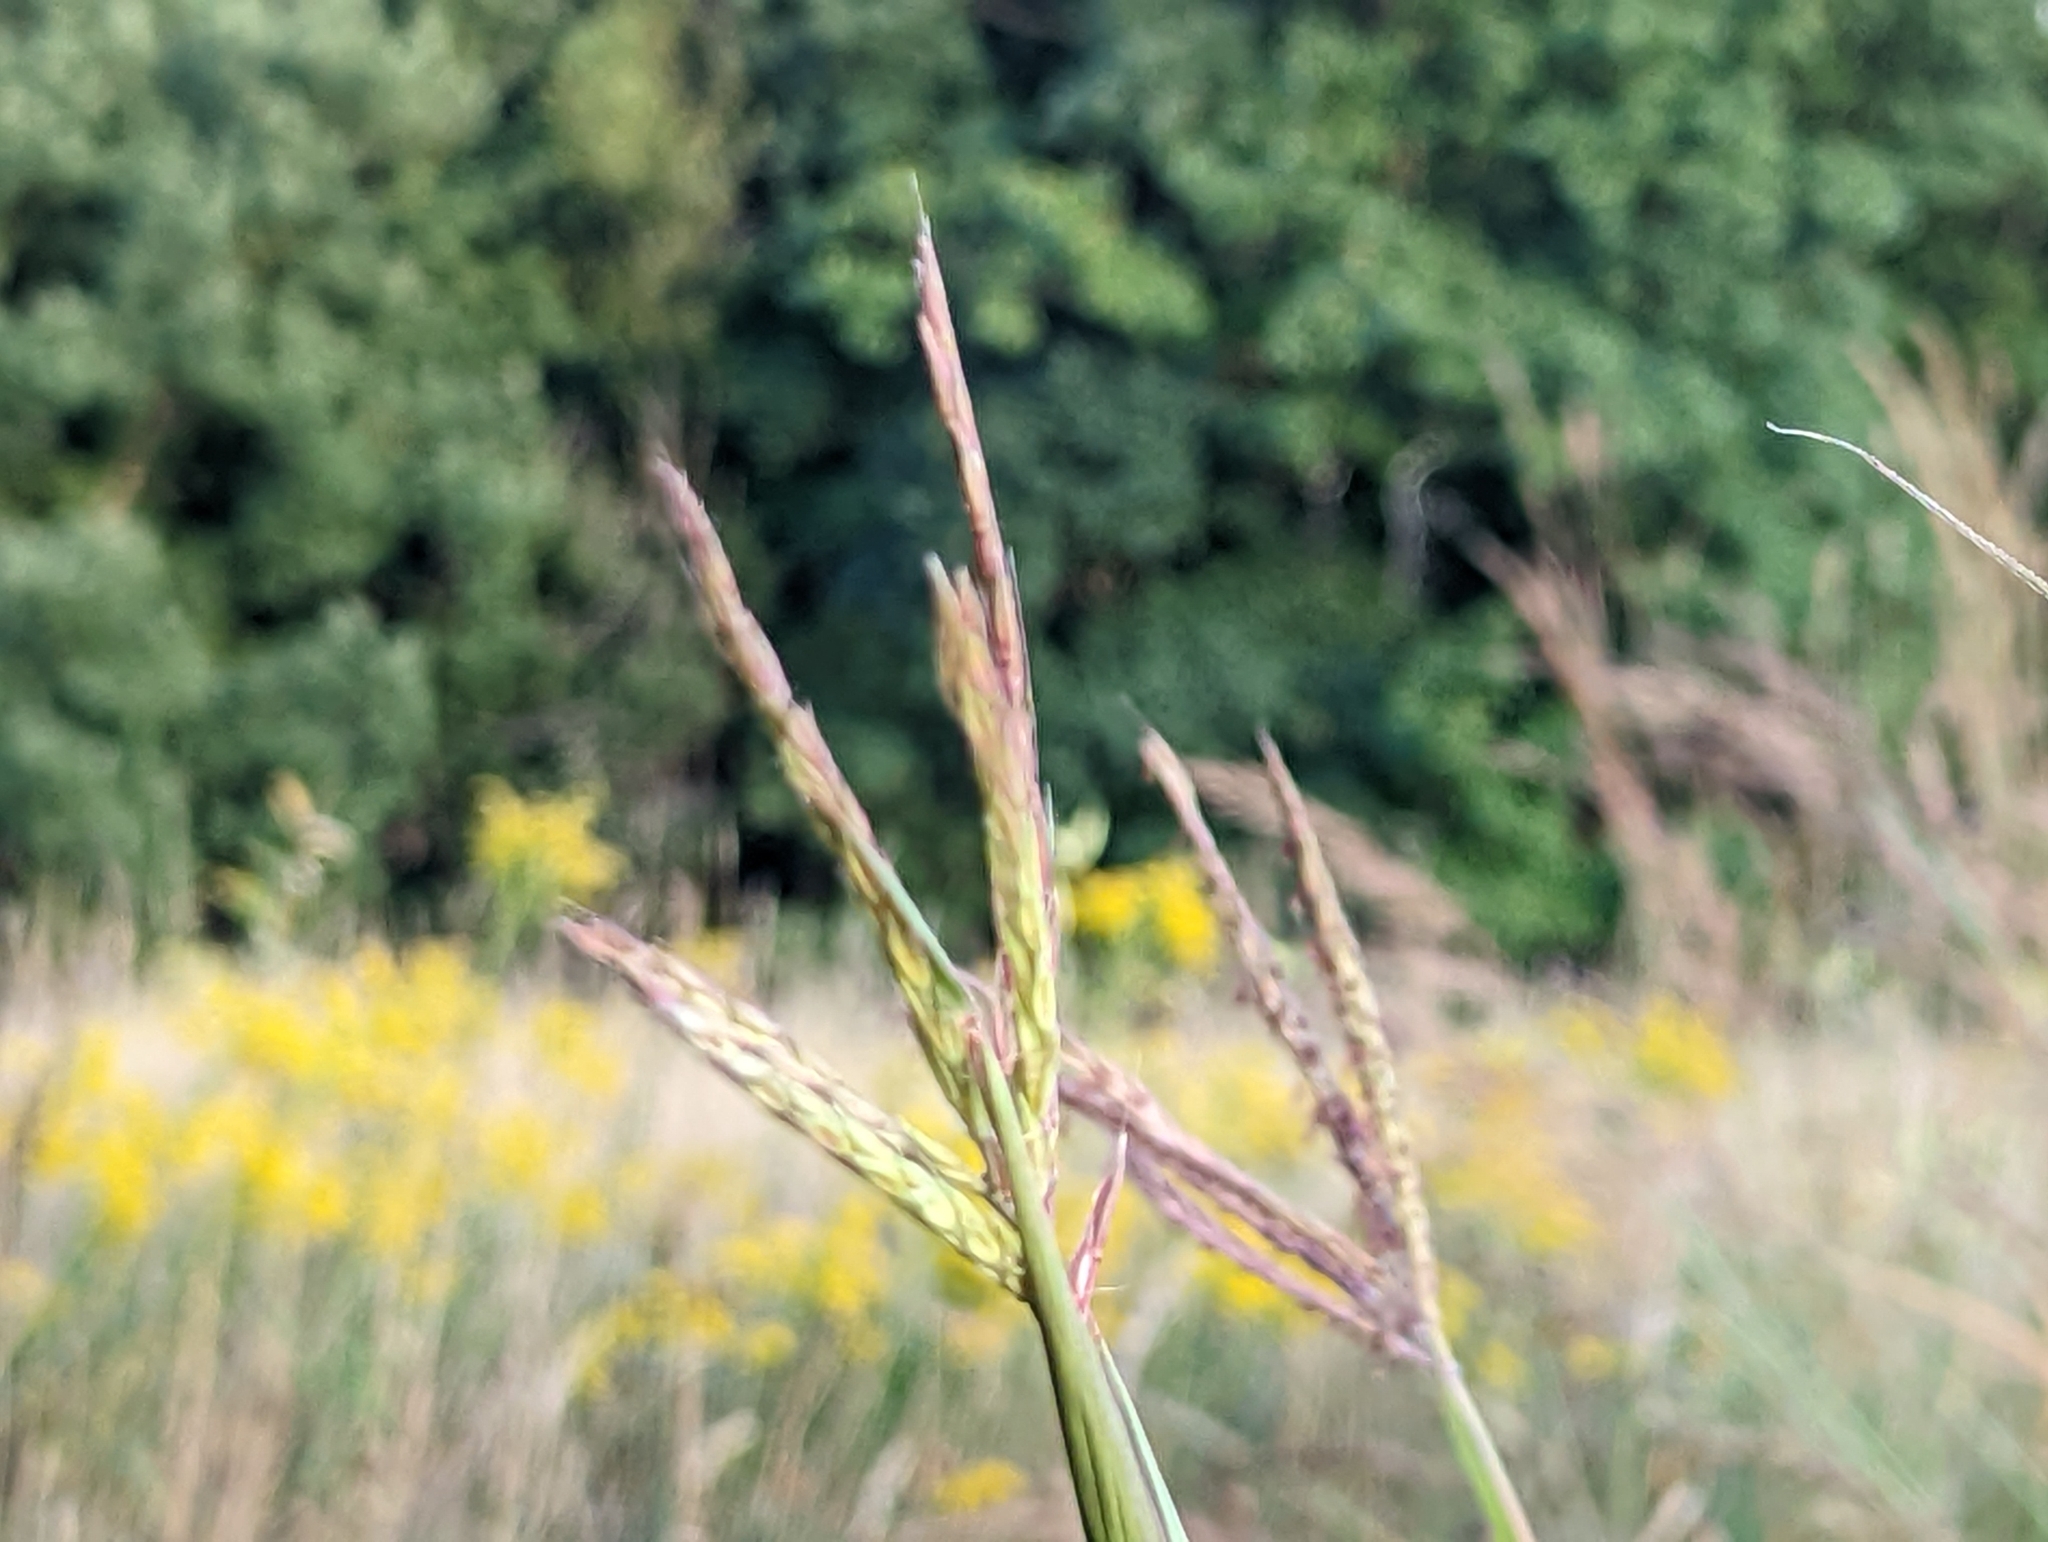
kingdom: Plantae
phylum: Tracheophyta
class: Liliopsida
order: Poales
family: Poaceae
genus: Andropogon
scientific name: Andropogon gerardi
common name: Big bluestem
